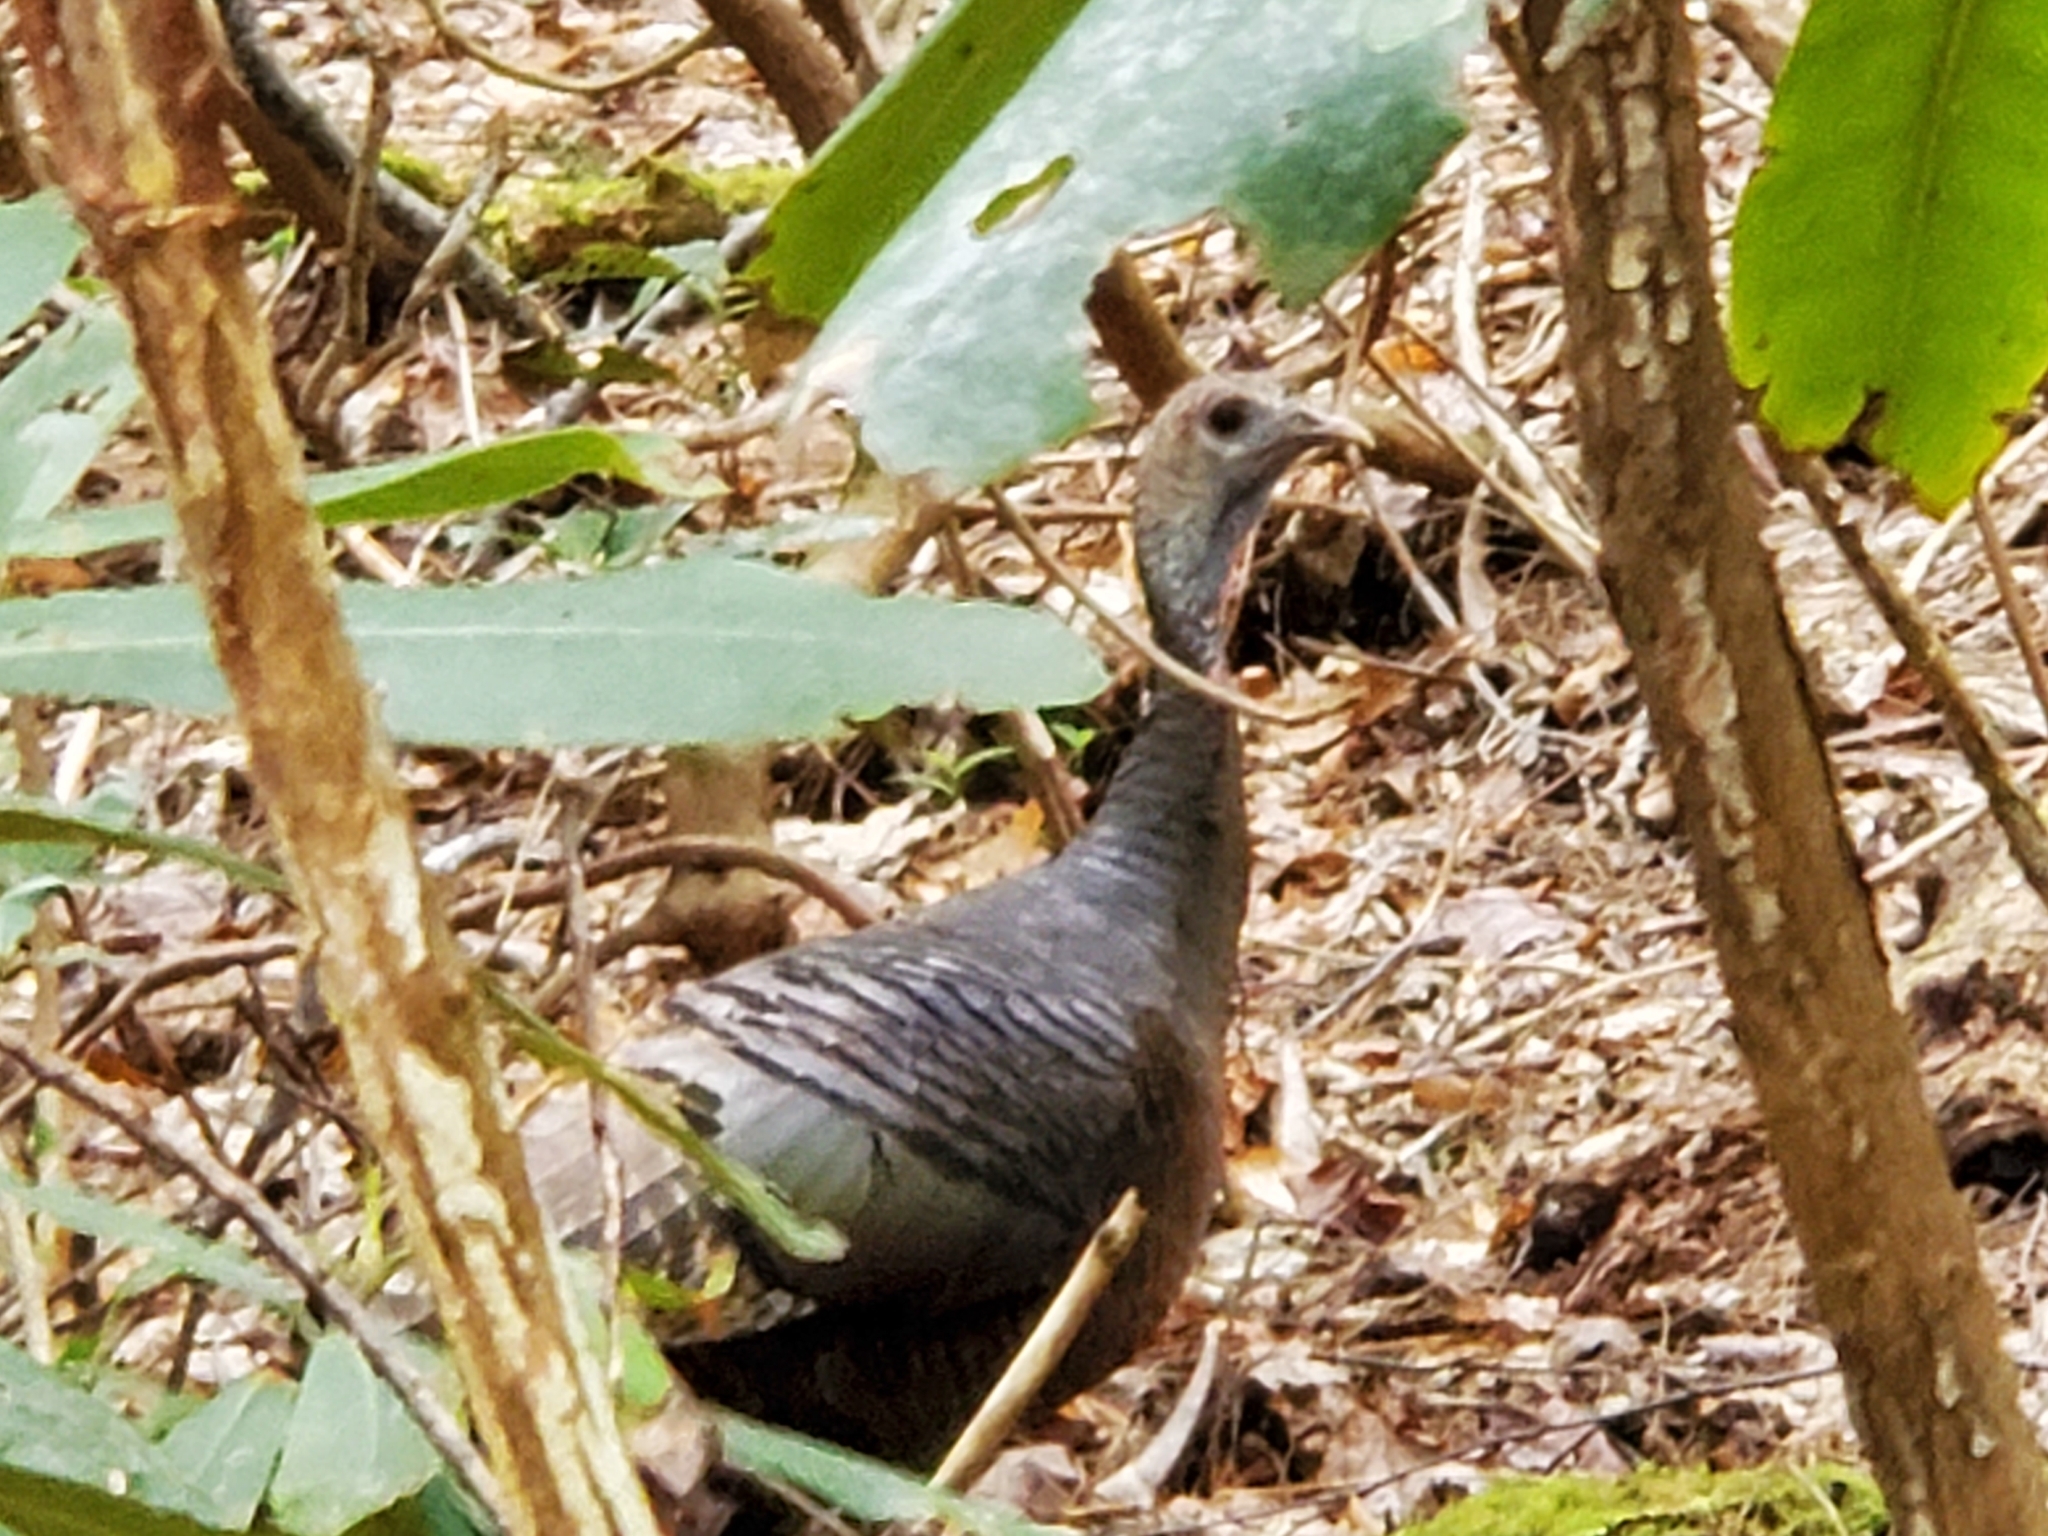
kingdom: Animalia
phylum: Chordata
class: Aves
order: Galliformes
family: Phasianidae
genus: Meleagris
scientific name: Meleagris gallopavo
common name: Wild turkey
